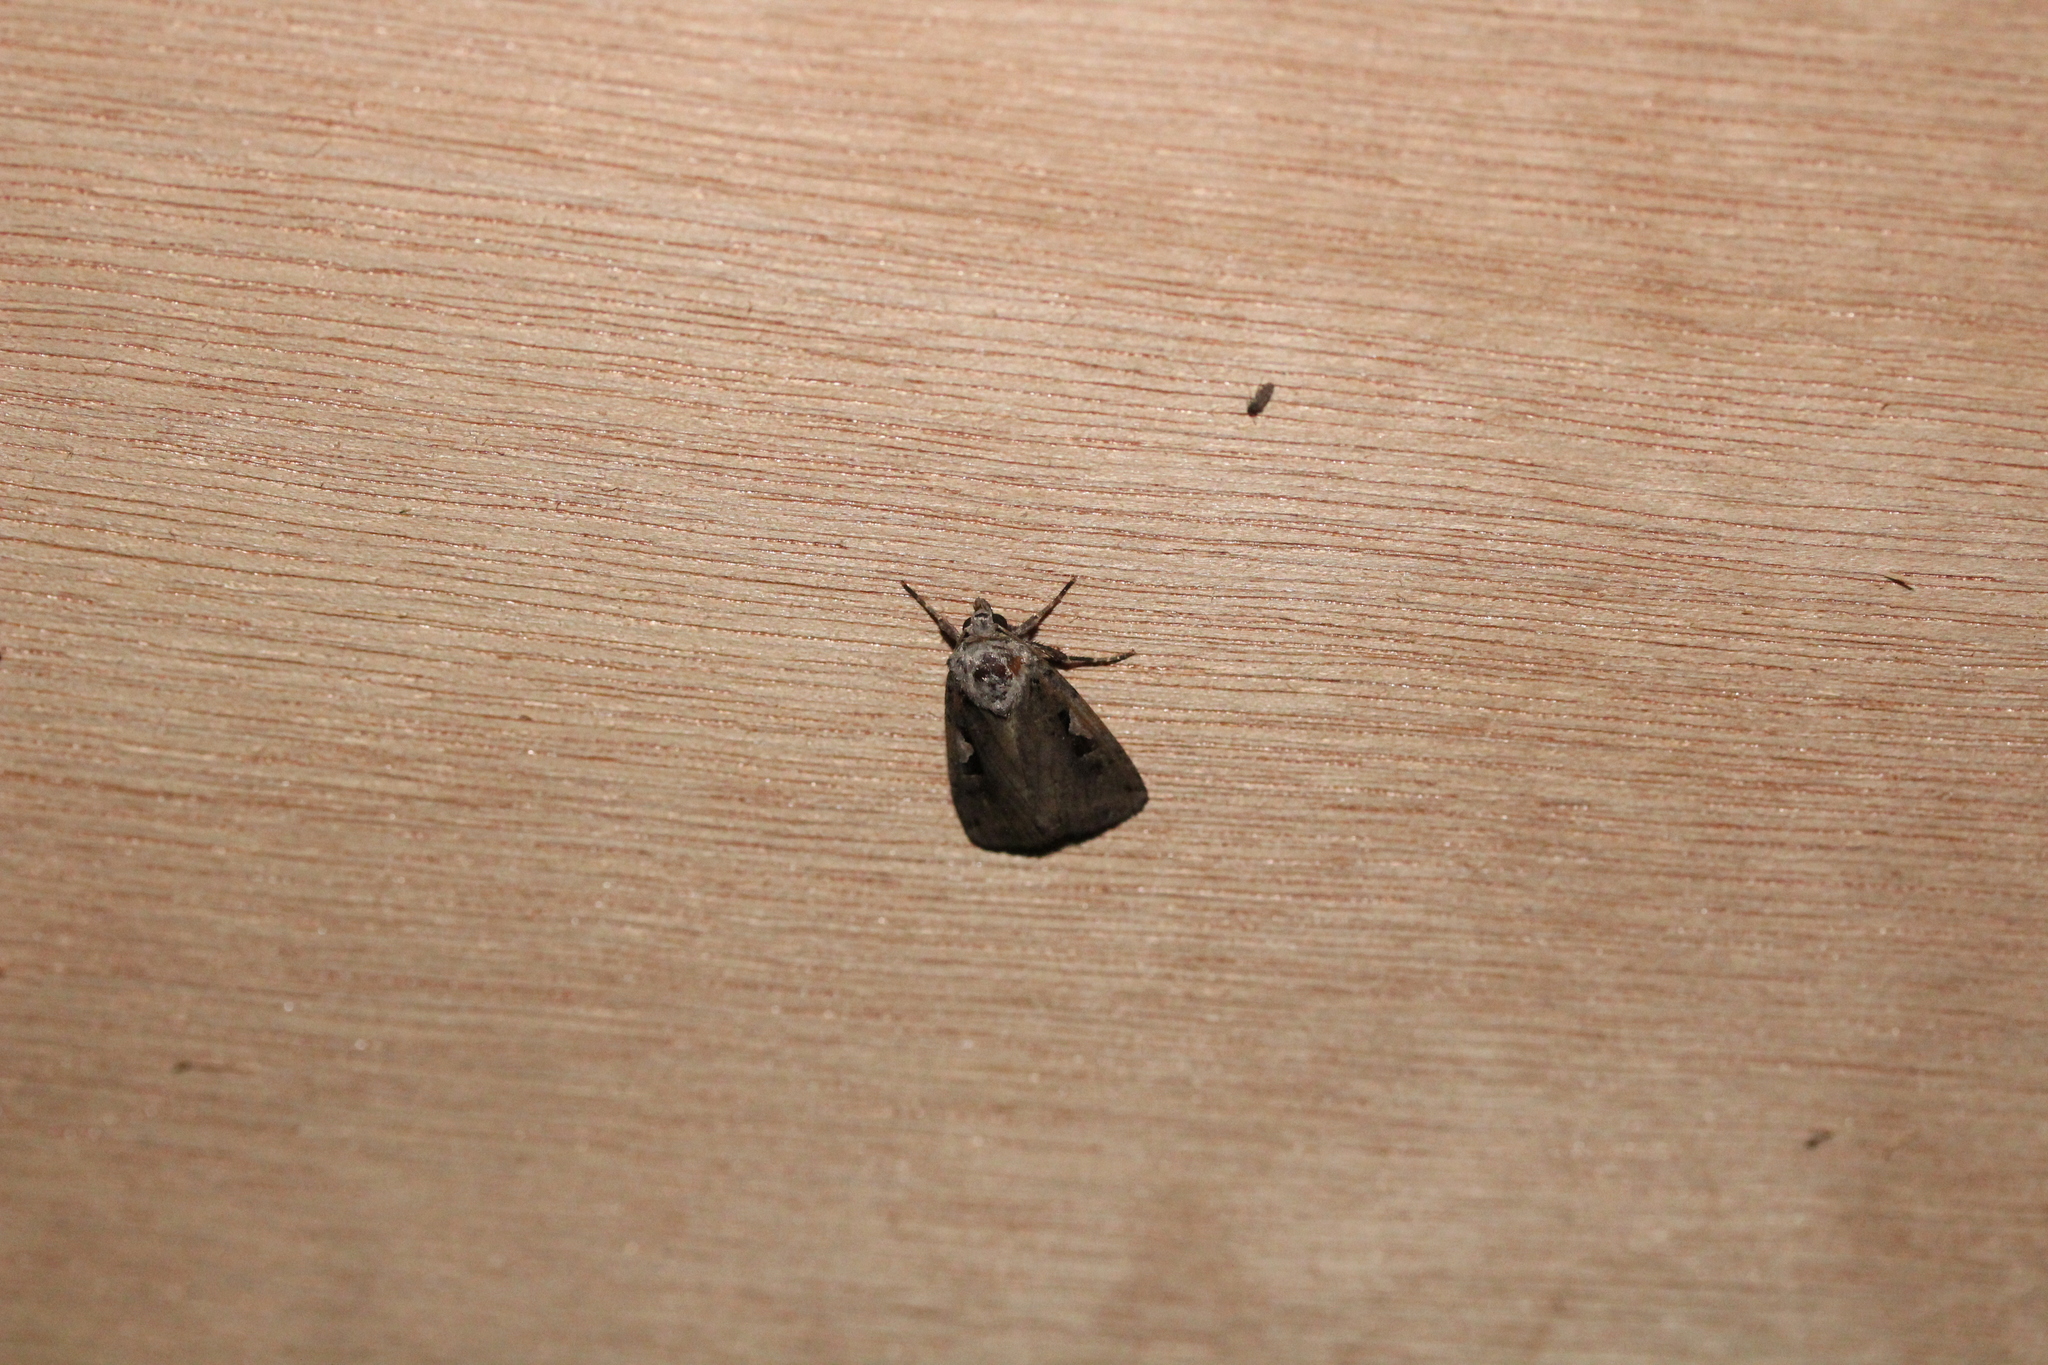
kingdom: Animalia
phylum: Arthropoda
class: Insecta
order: Lepidoptera
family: Noctuidae
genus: Xestia
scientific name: Xestia c-nigrum
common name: Setaceous hebrew character
